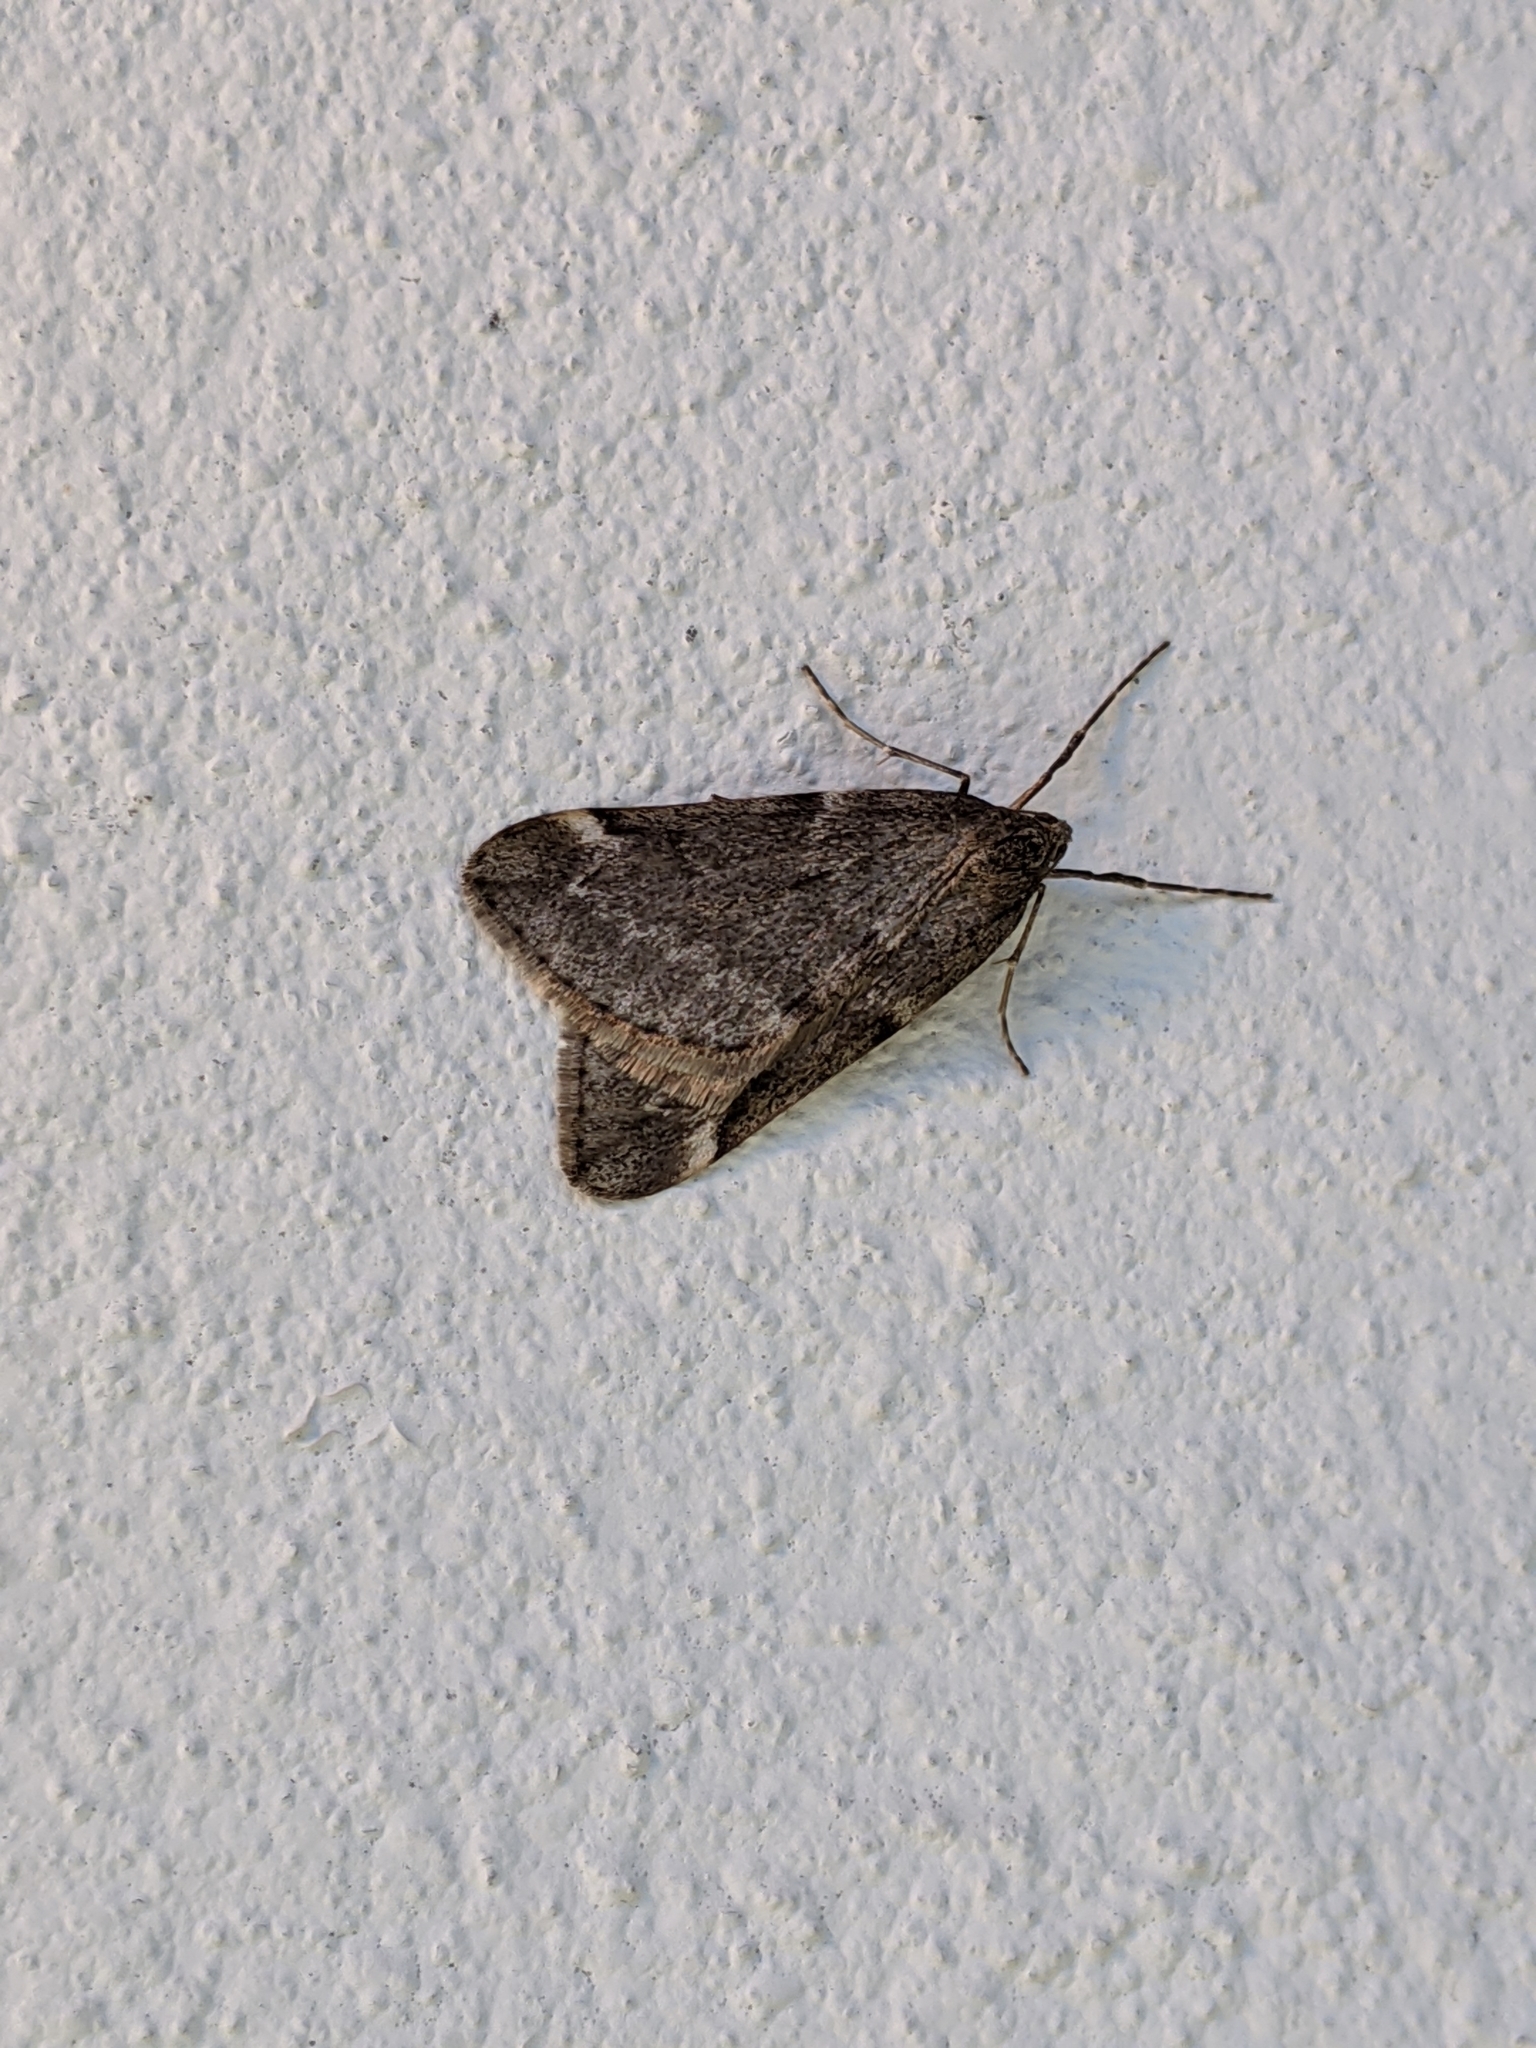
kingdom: Animalia
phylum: Arthropoda
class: Insecta
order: Lepidoptera
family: Geometridae
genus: Alsophila
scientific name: Alsophila pometaria
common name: Fall cankerworm
